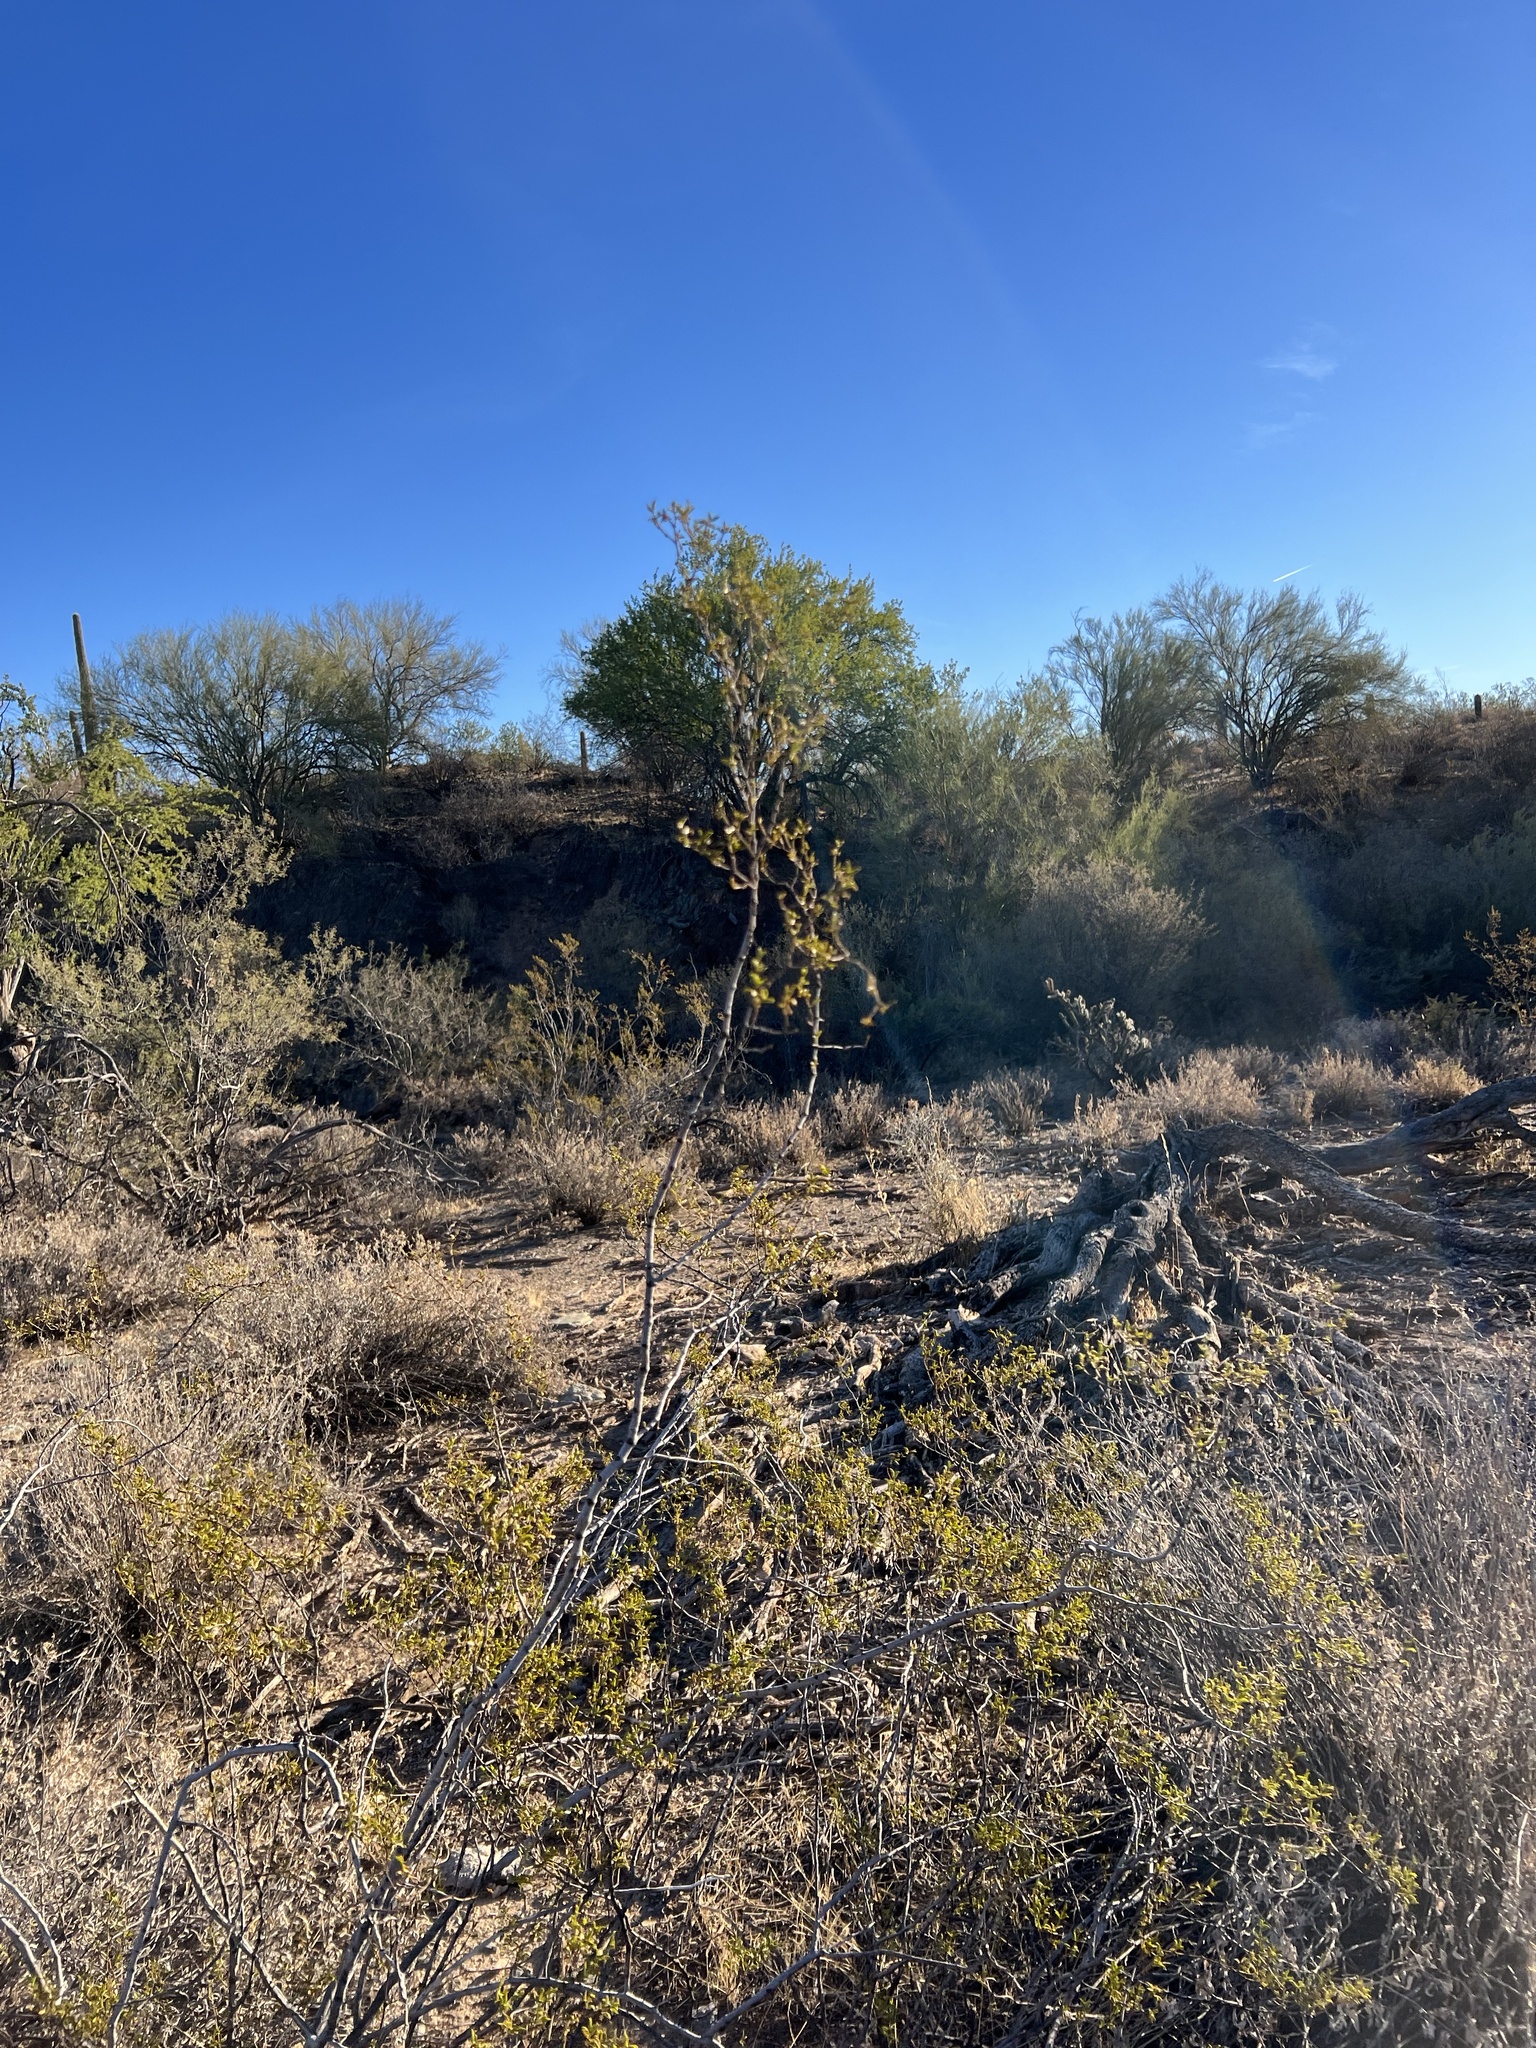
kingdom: Plantae
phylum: Tracheophyta
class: Magnoliopsida
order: Zygophyllales
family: Zygophyllaceae
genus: Larrea
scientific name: Larrea tridentata
